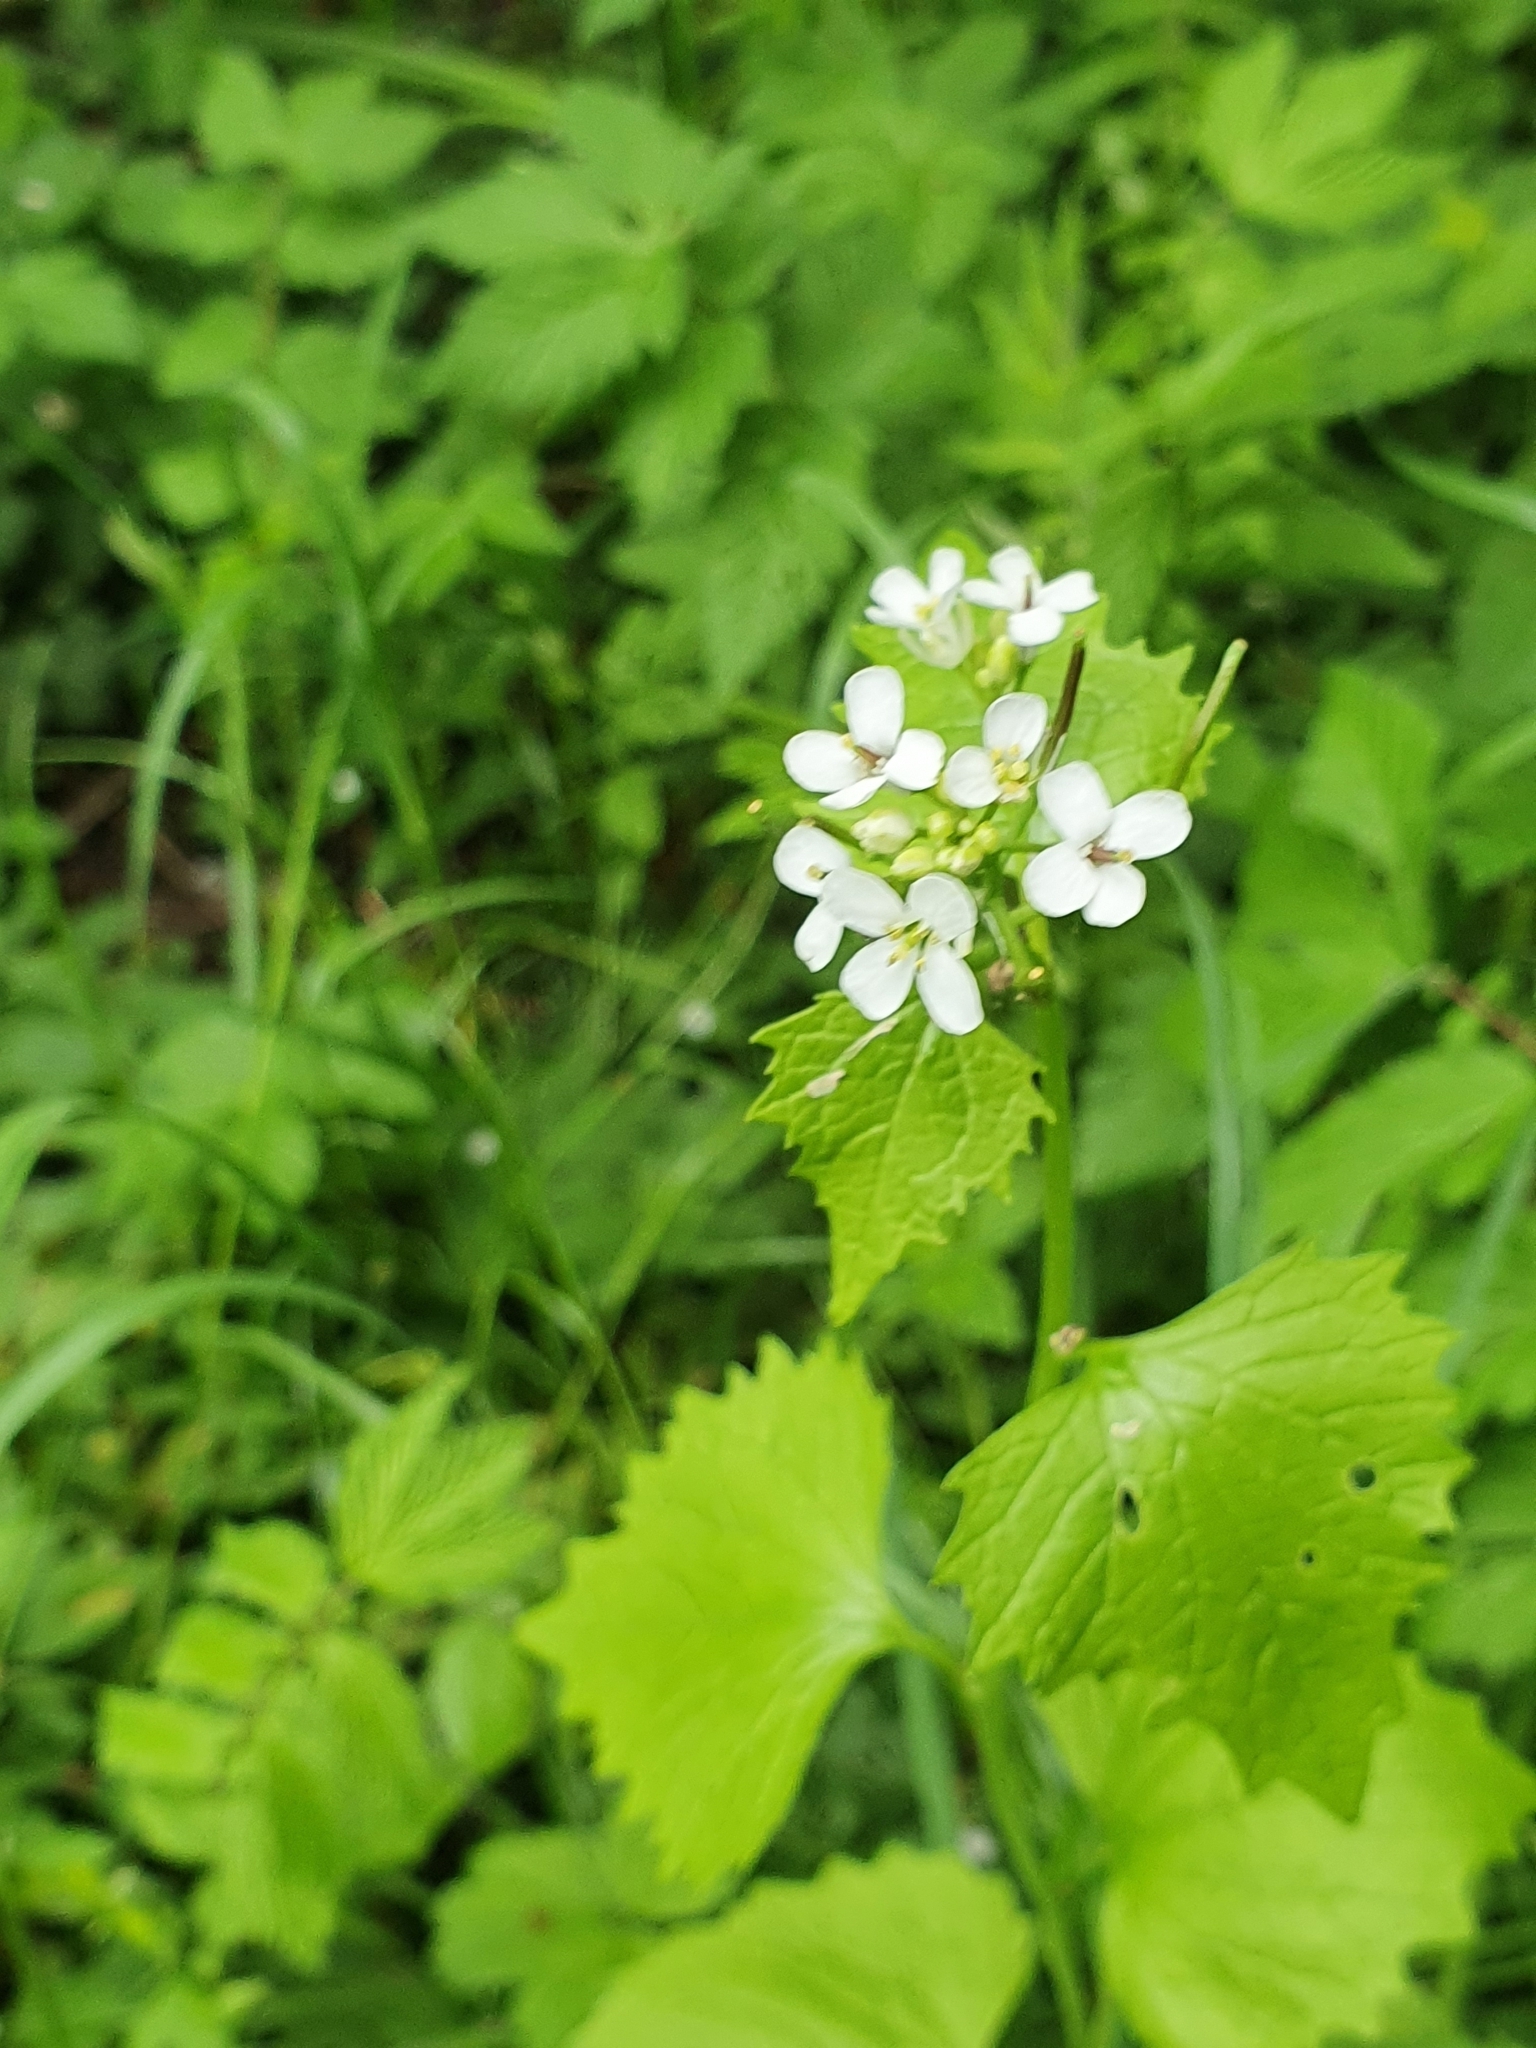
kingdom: Plantae
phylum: Tracheophyta
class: Magnoliopsida
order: Brassicales
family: Brassicaceae
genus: Alliaria
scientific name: Alliaria petiolata
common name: Garlic mustard
